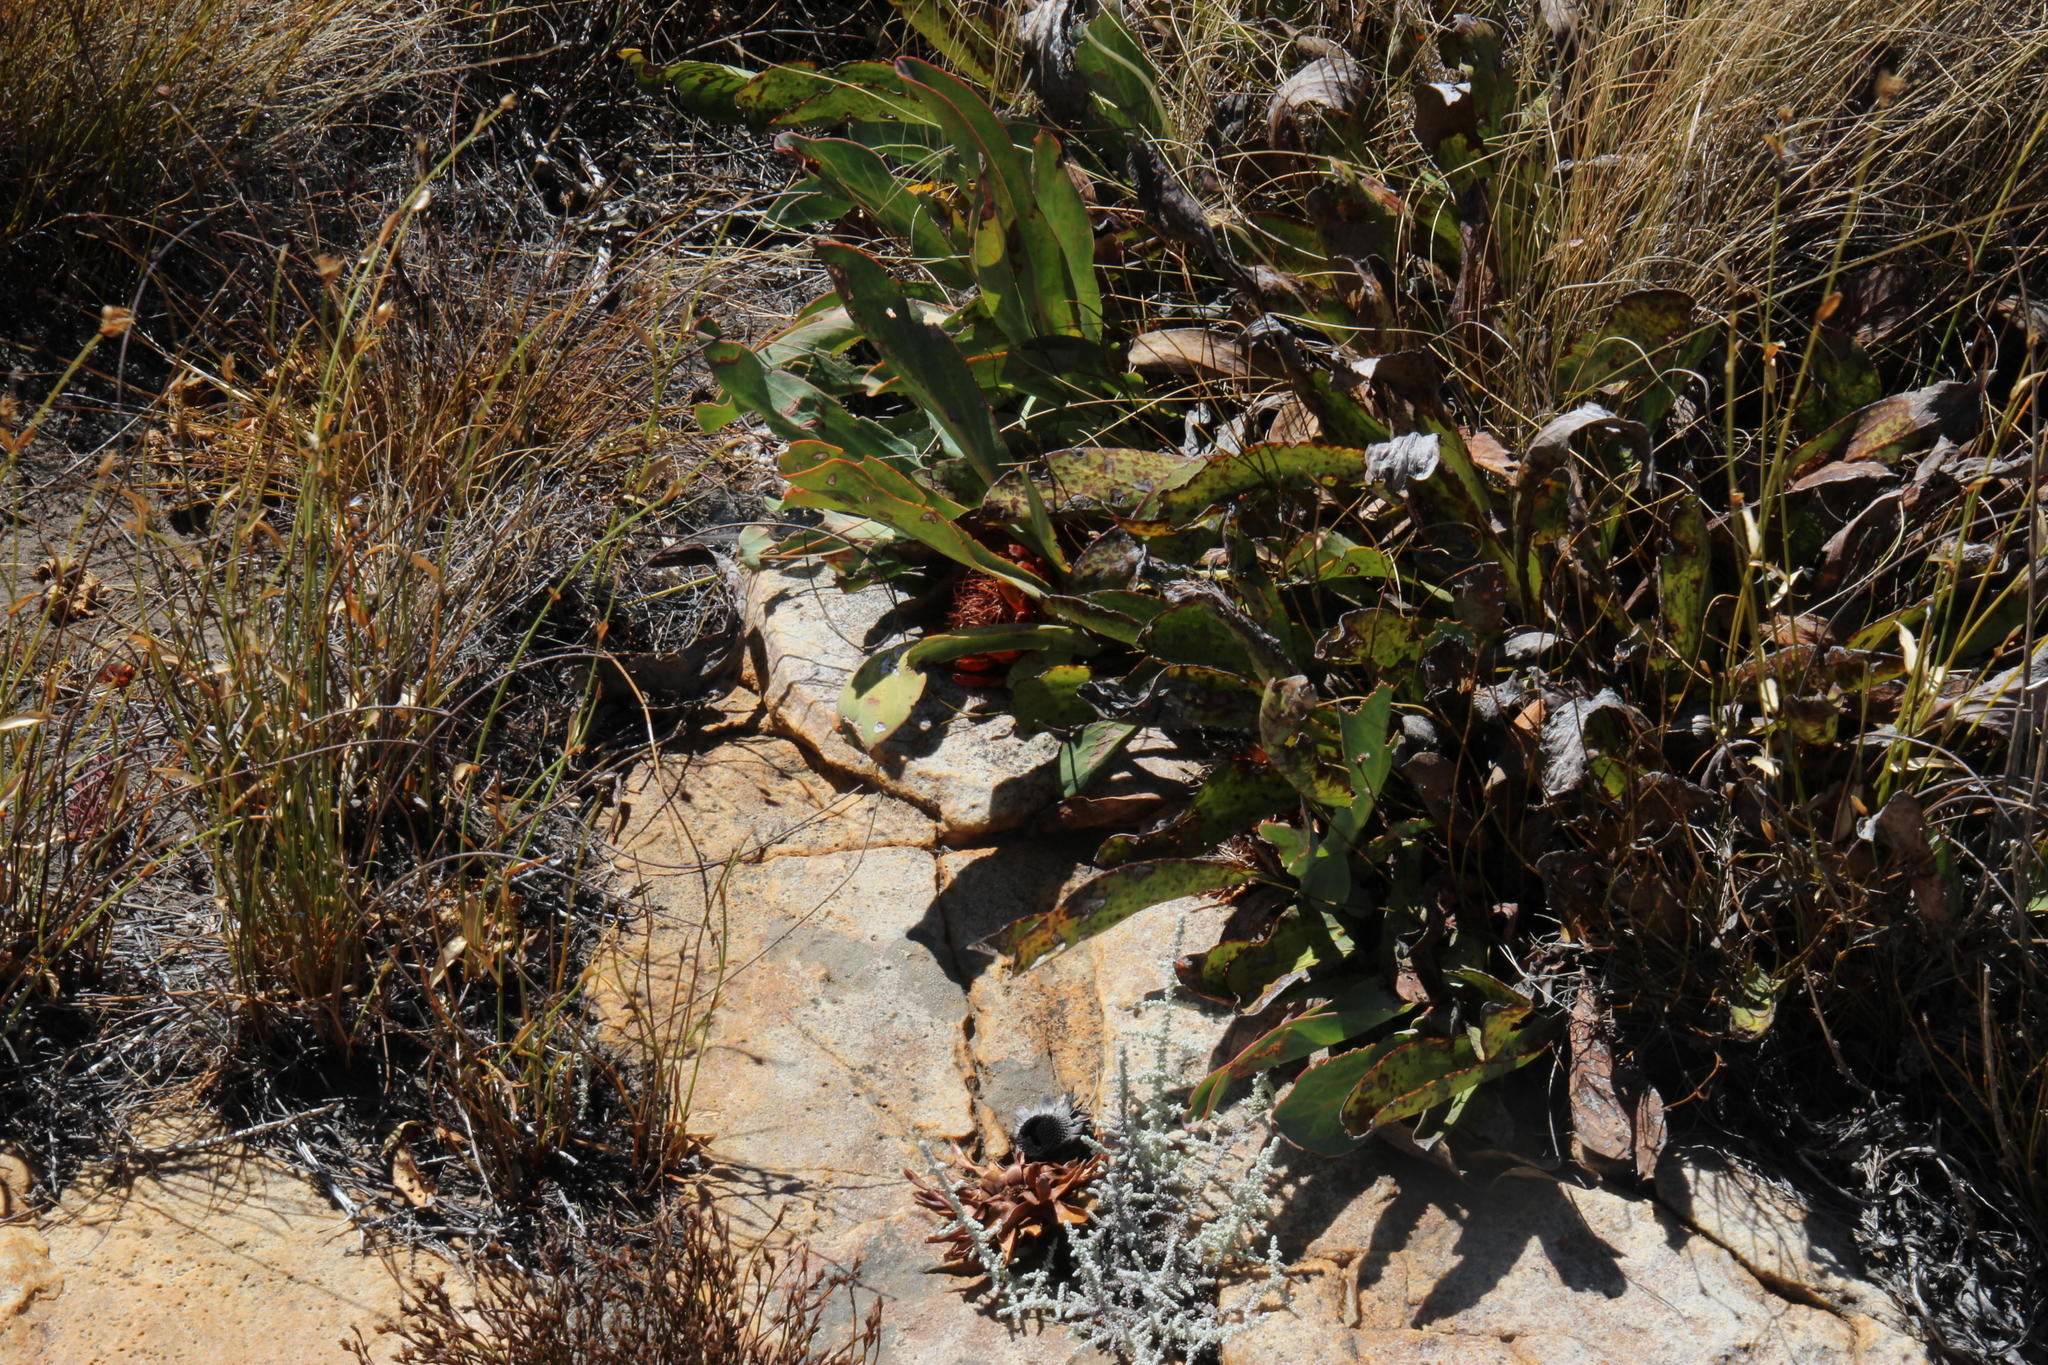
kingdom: Plantae
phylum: Tracheophyta
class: Magnoliopsida
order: Proteales
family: Proteaceae
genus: Protea
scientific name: Protea laevis
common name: Smooth-leaf sugarbush
